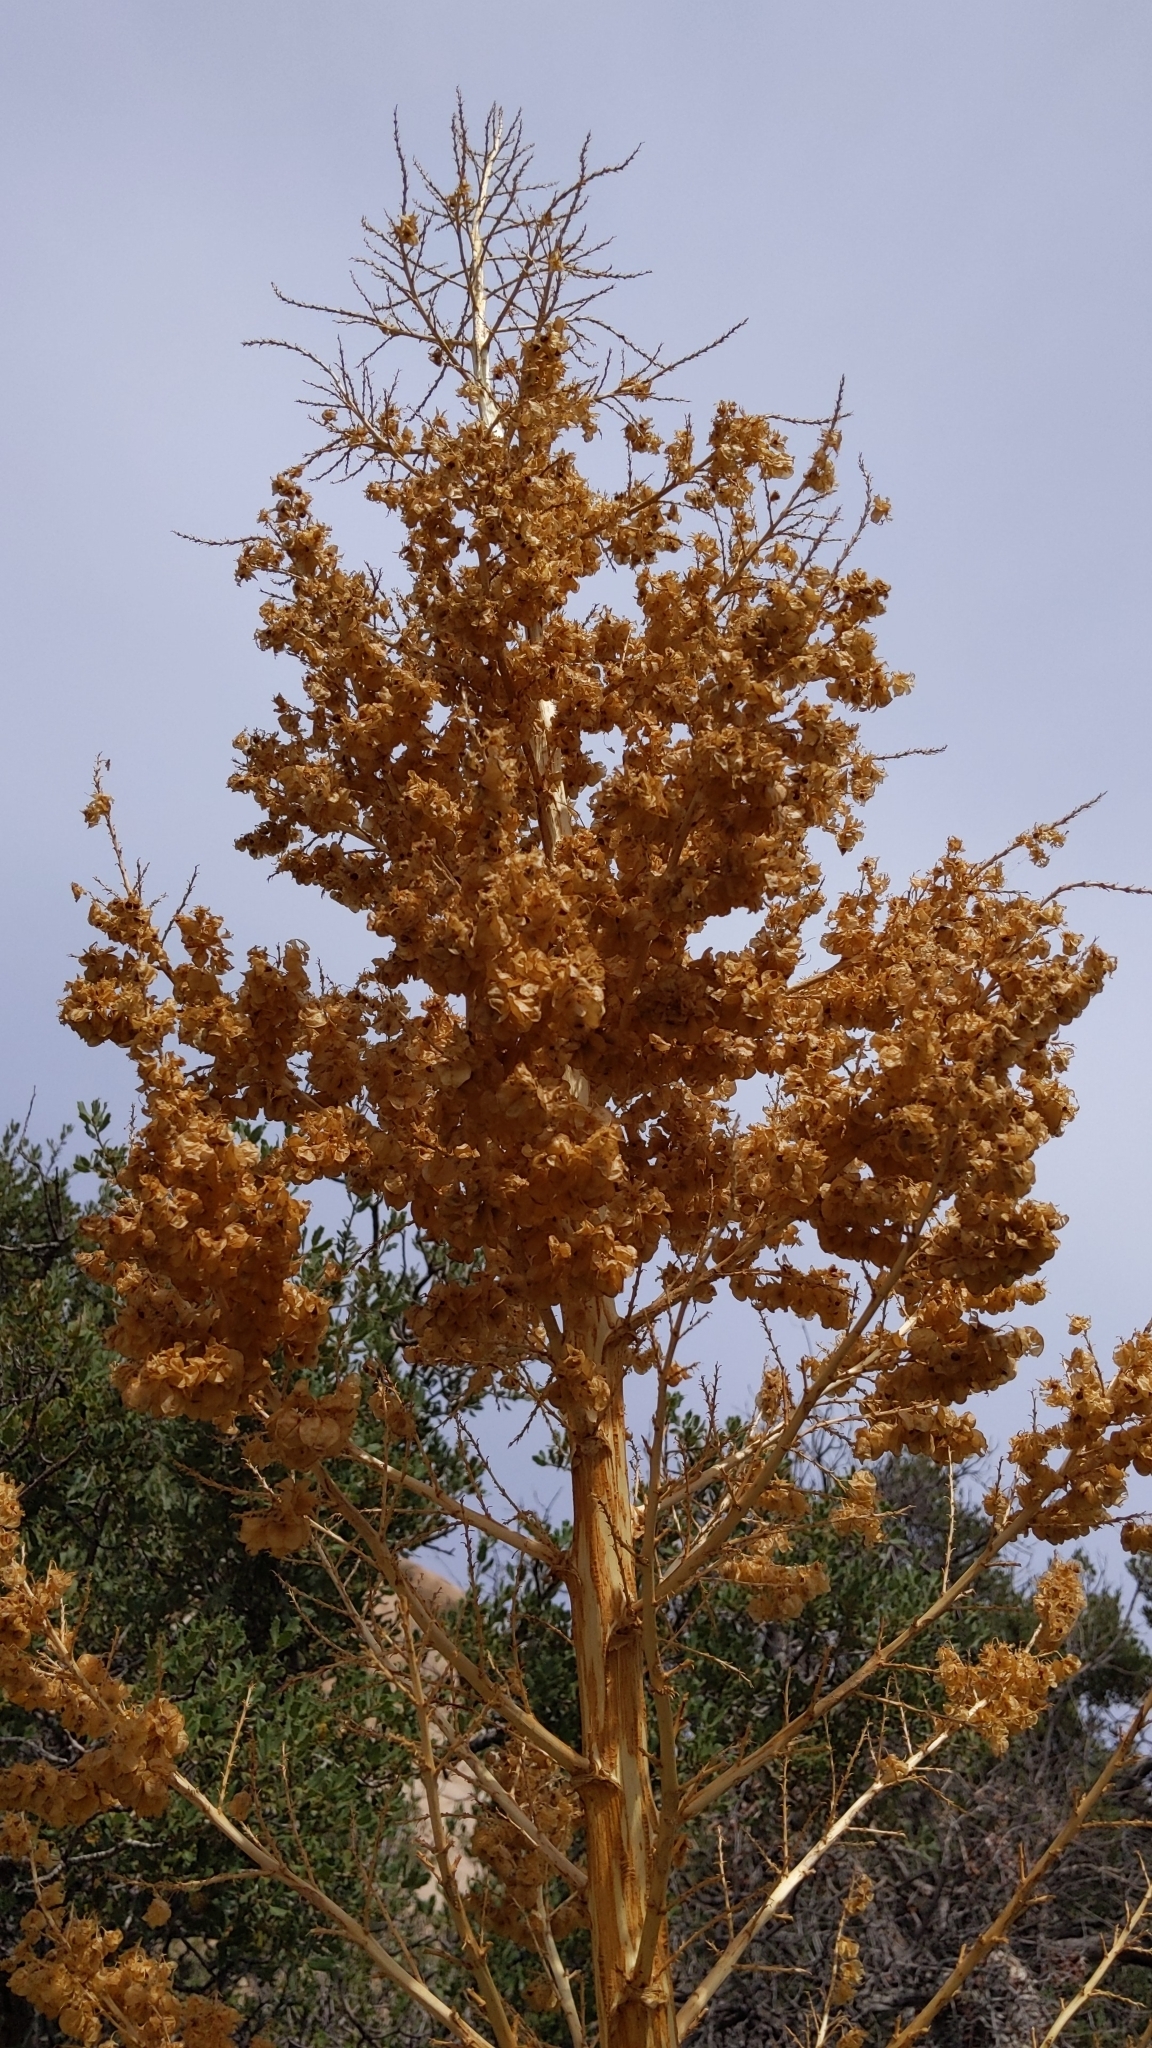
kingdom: Plantae
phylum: Tracheophyta
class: Liliopsida
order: Asparagales
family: Asparagaceae
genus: Nolina
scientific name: Nolina parryi
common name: Parry nolina
